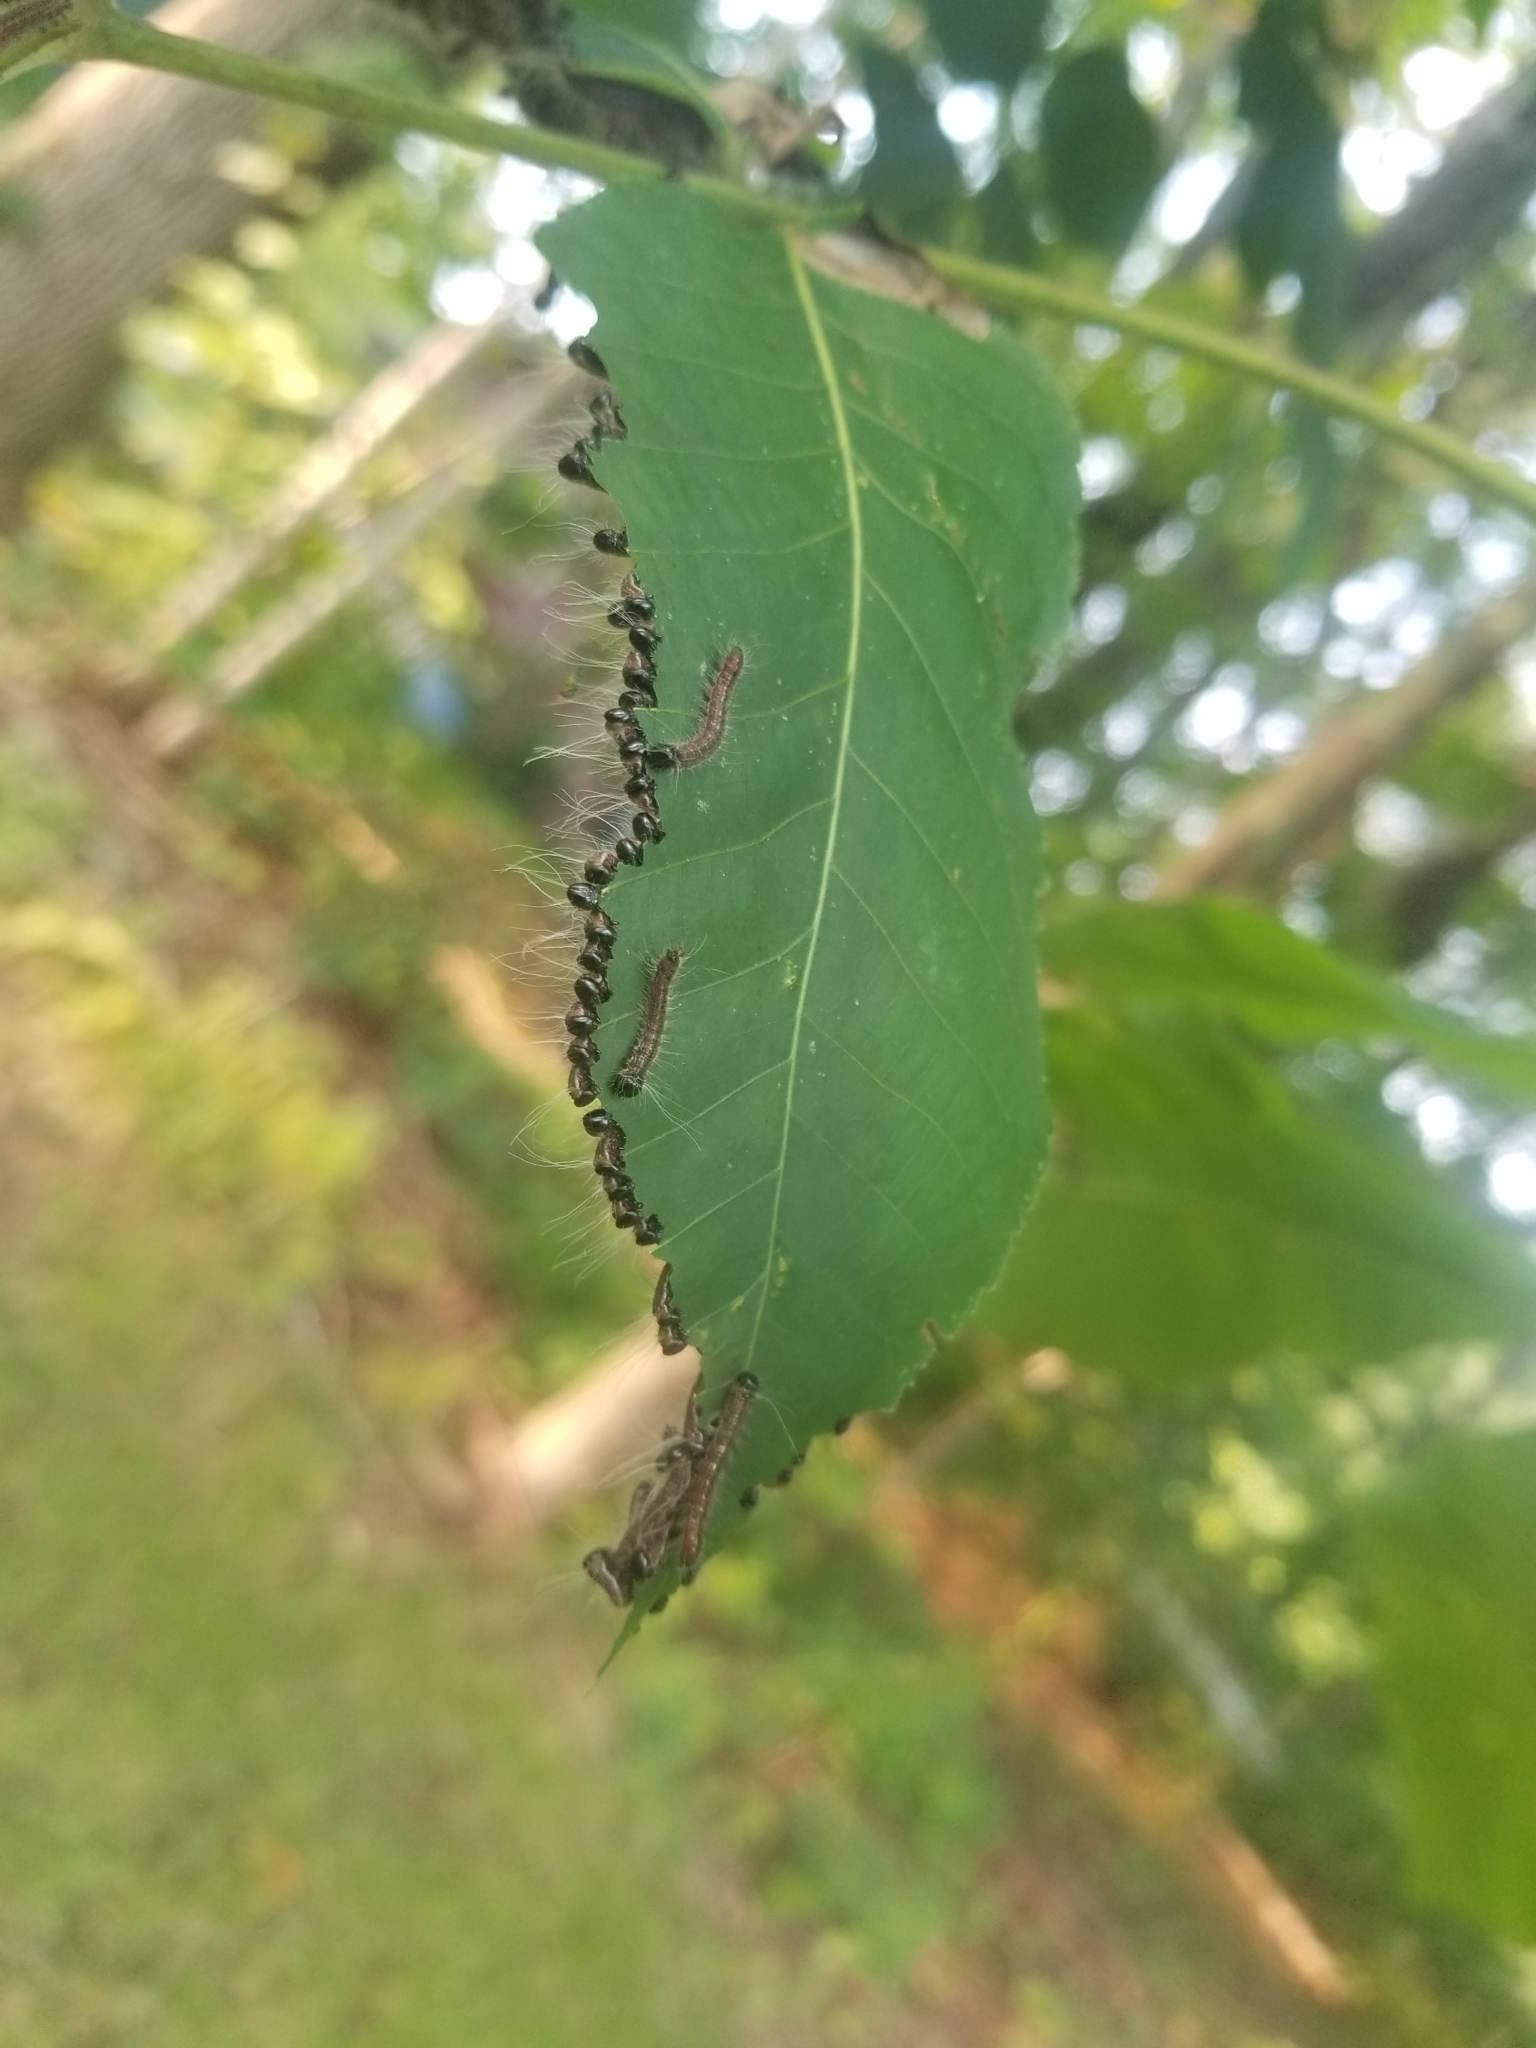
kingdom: Animalia
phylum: Arthropoda
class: Insecta
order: Lepidoptera
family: Notodontidae
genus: Datana
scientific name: Datana integerrima
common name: Walnut caterpillar
